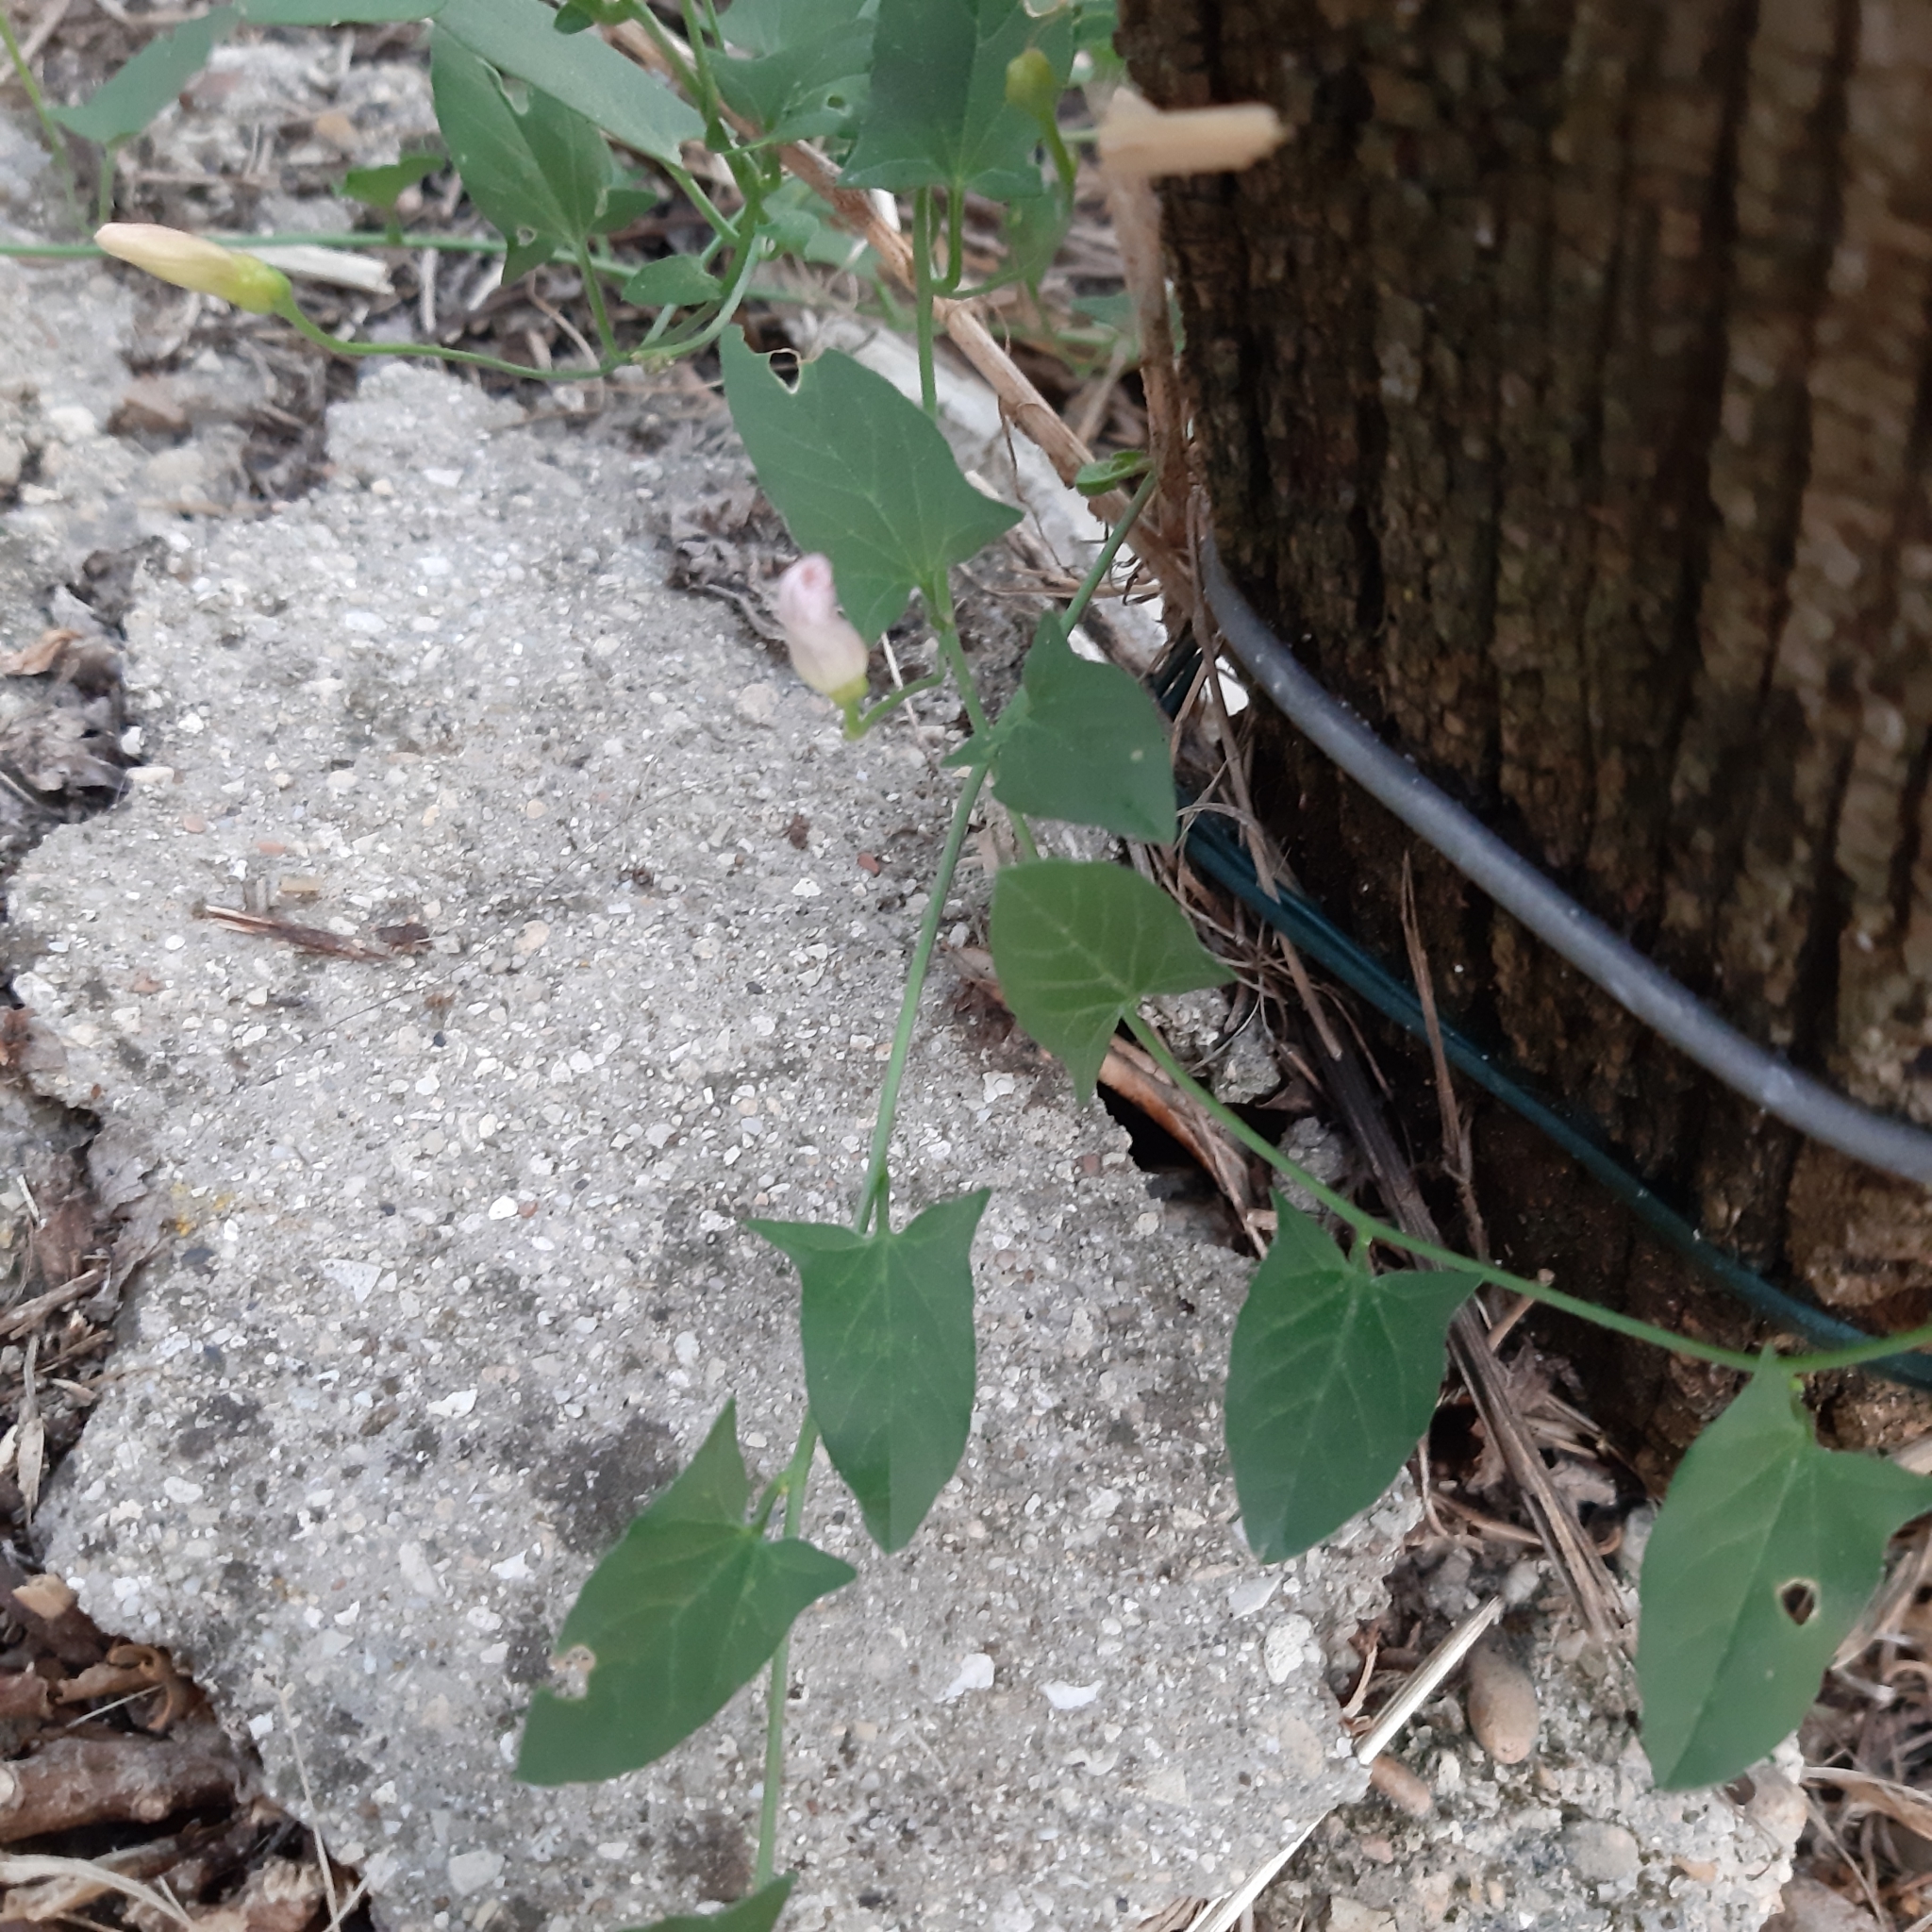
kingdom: Plantae
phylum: Tracheophyta
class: Magnoliopsida
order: Solanales
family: Convolvulaceae
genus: Convolvulus
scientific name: Convolvulus arvensis
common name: Field bindweed
